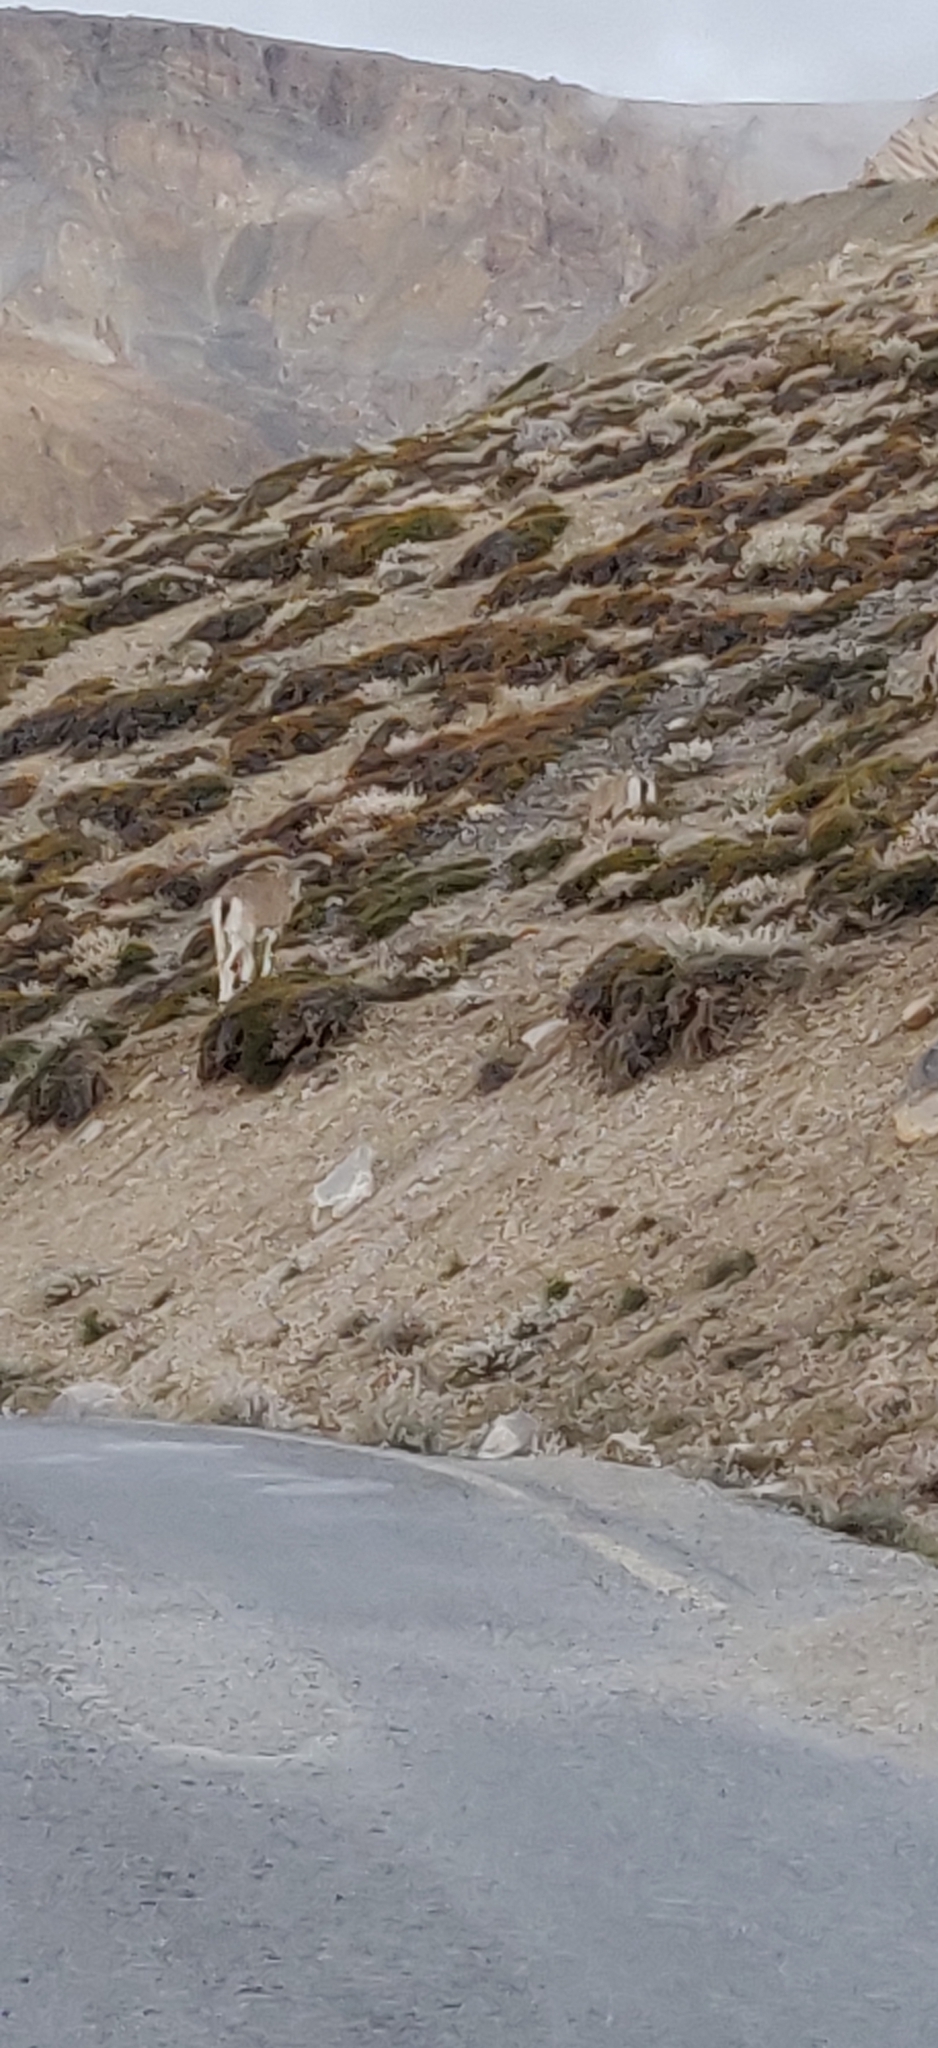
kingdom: Animalia
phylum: Chordata
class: Mammalia
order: Artiodactyla
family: Bovidae
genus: Pseudois
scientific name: Pseudois nayaur
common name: Bharal
